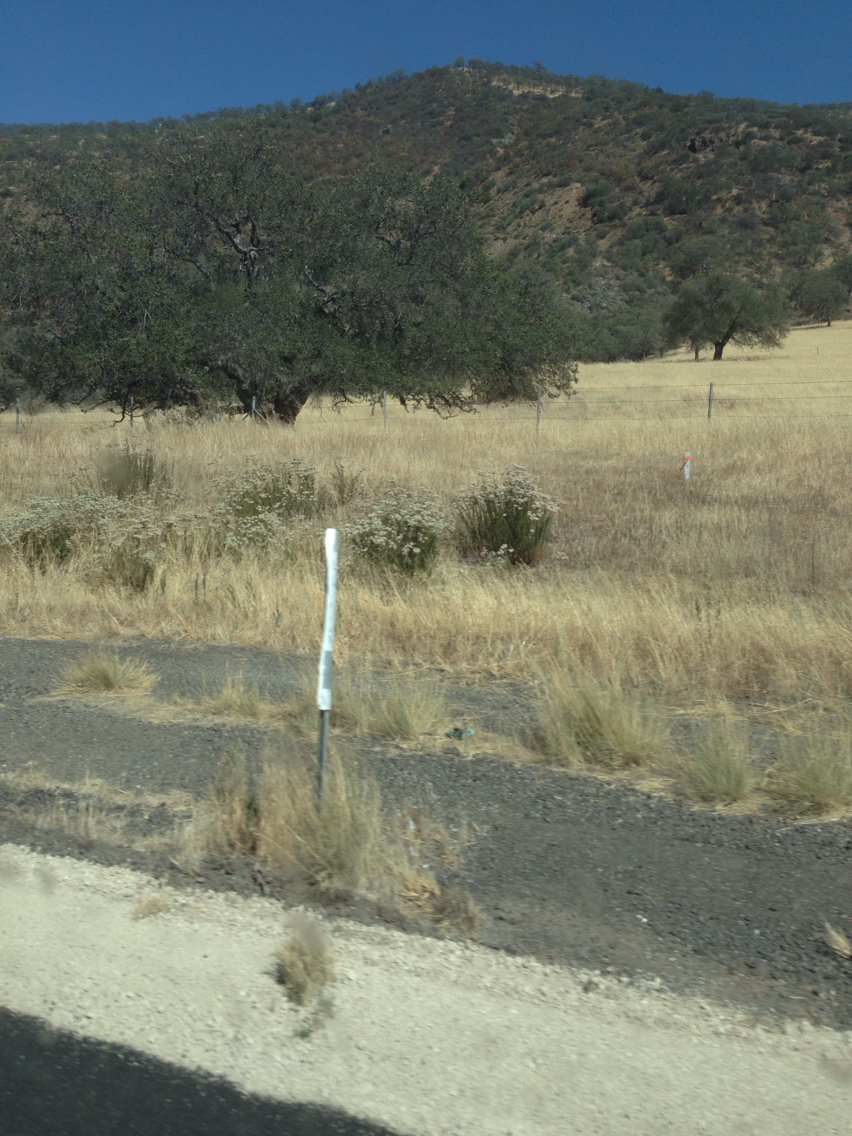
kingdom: Plantae
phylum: Tracheophyta
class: Magnoliopsida
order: Caryophyllales
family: Polygonaceae
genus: Eriogonum
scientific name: Eriogonum fasciculatum
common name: California wild buckwheat
